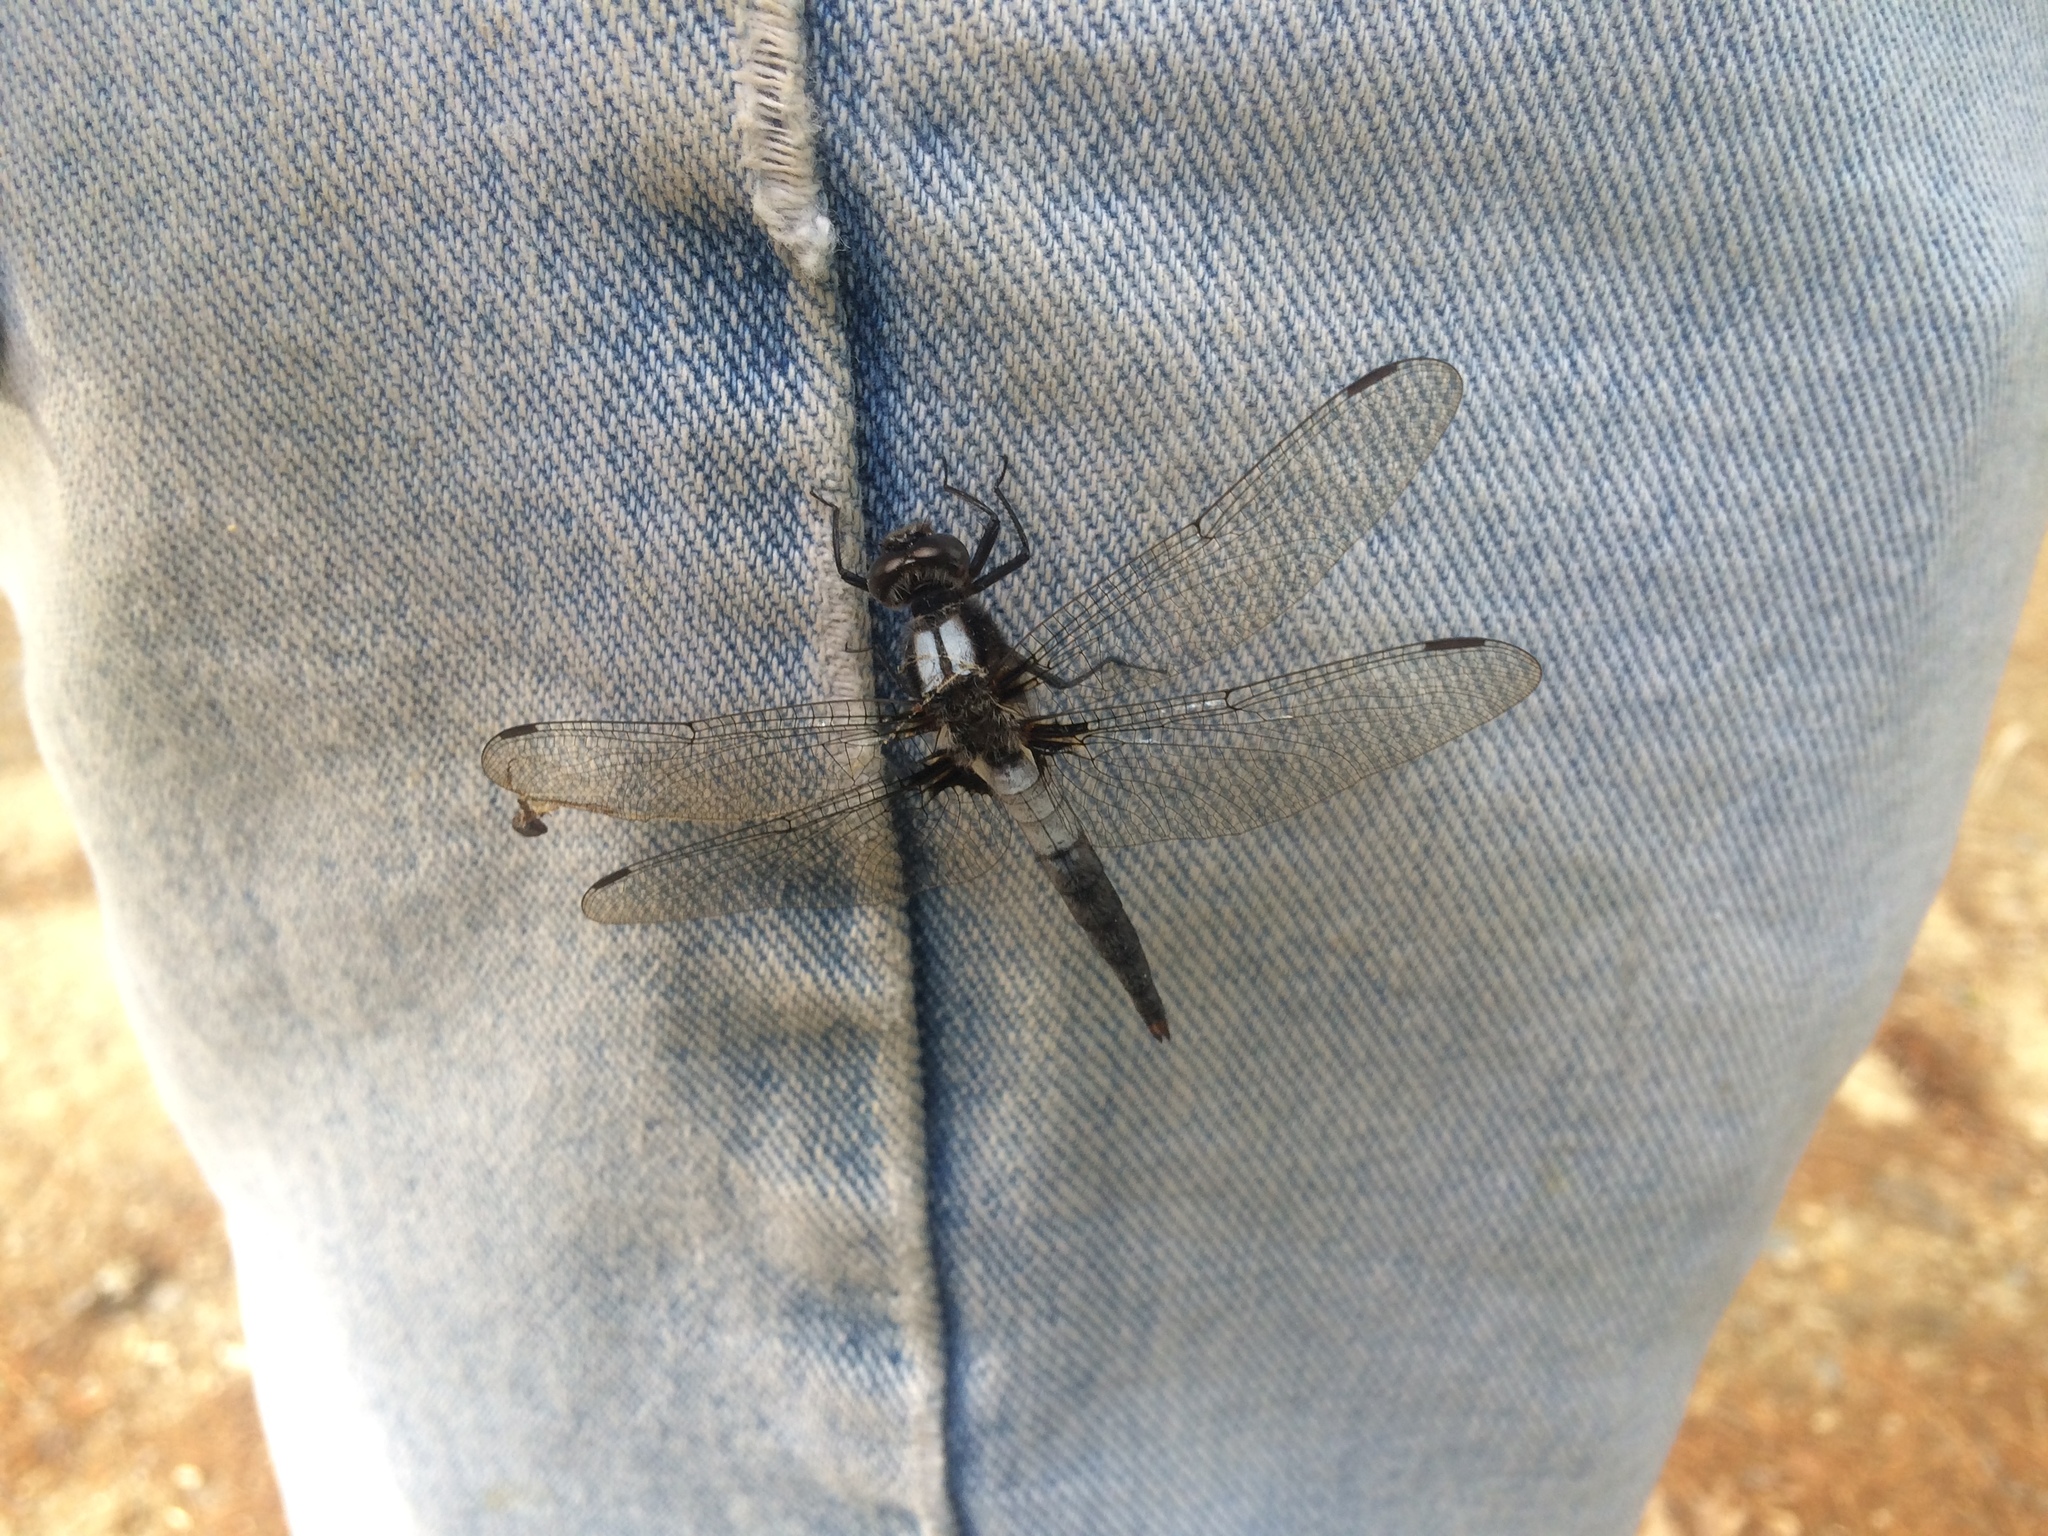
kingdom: Animalia
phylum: Arthropoda
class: Insecta
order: Odonata
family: Libellulidae
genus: Ladona
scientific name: Ladona julia
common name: Chalk-fronted corporal
